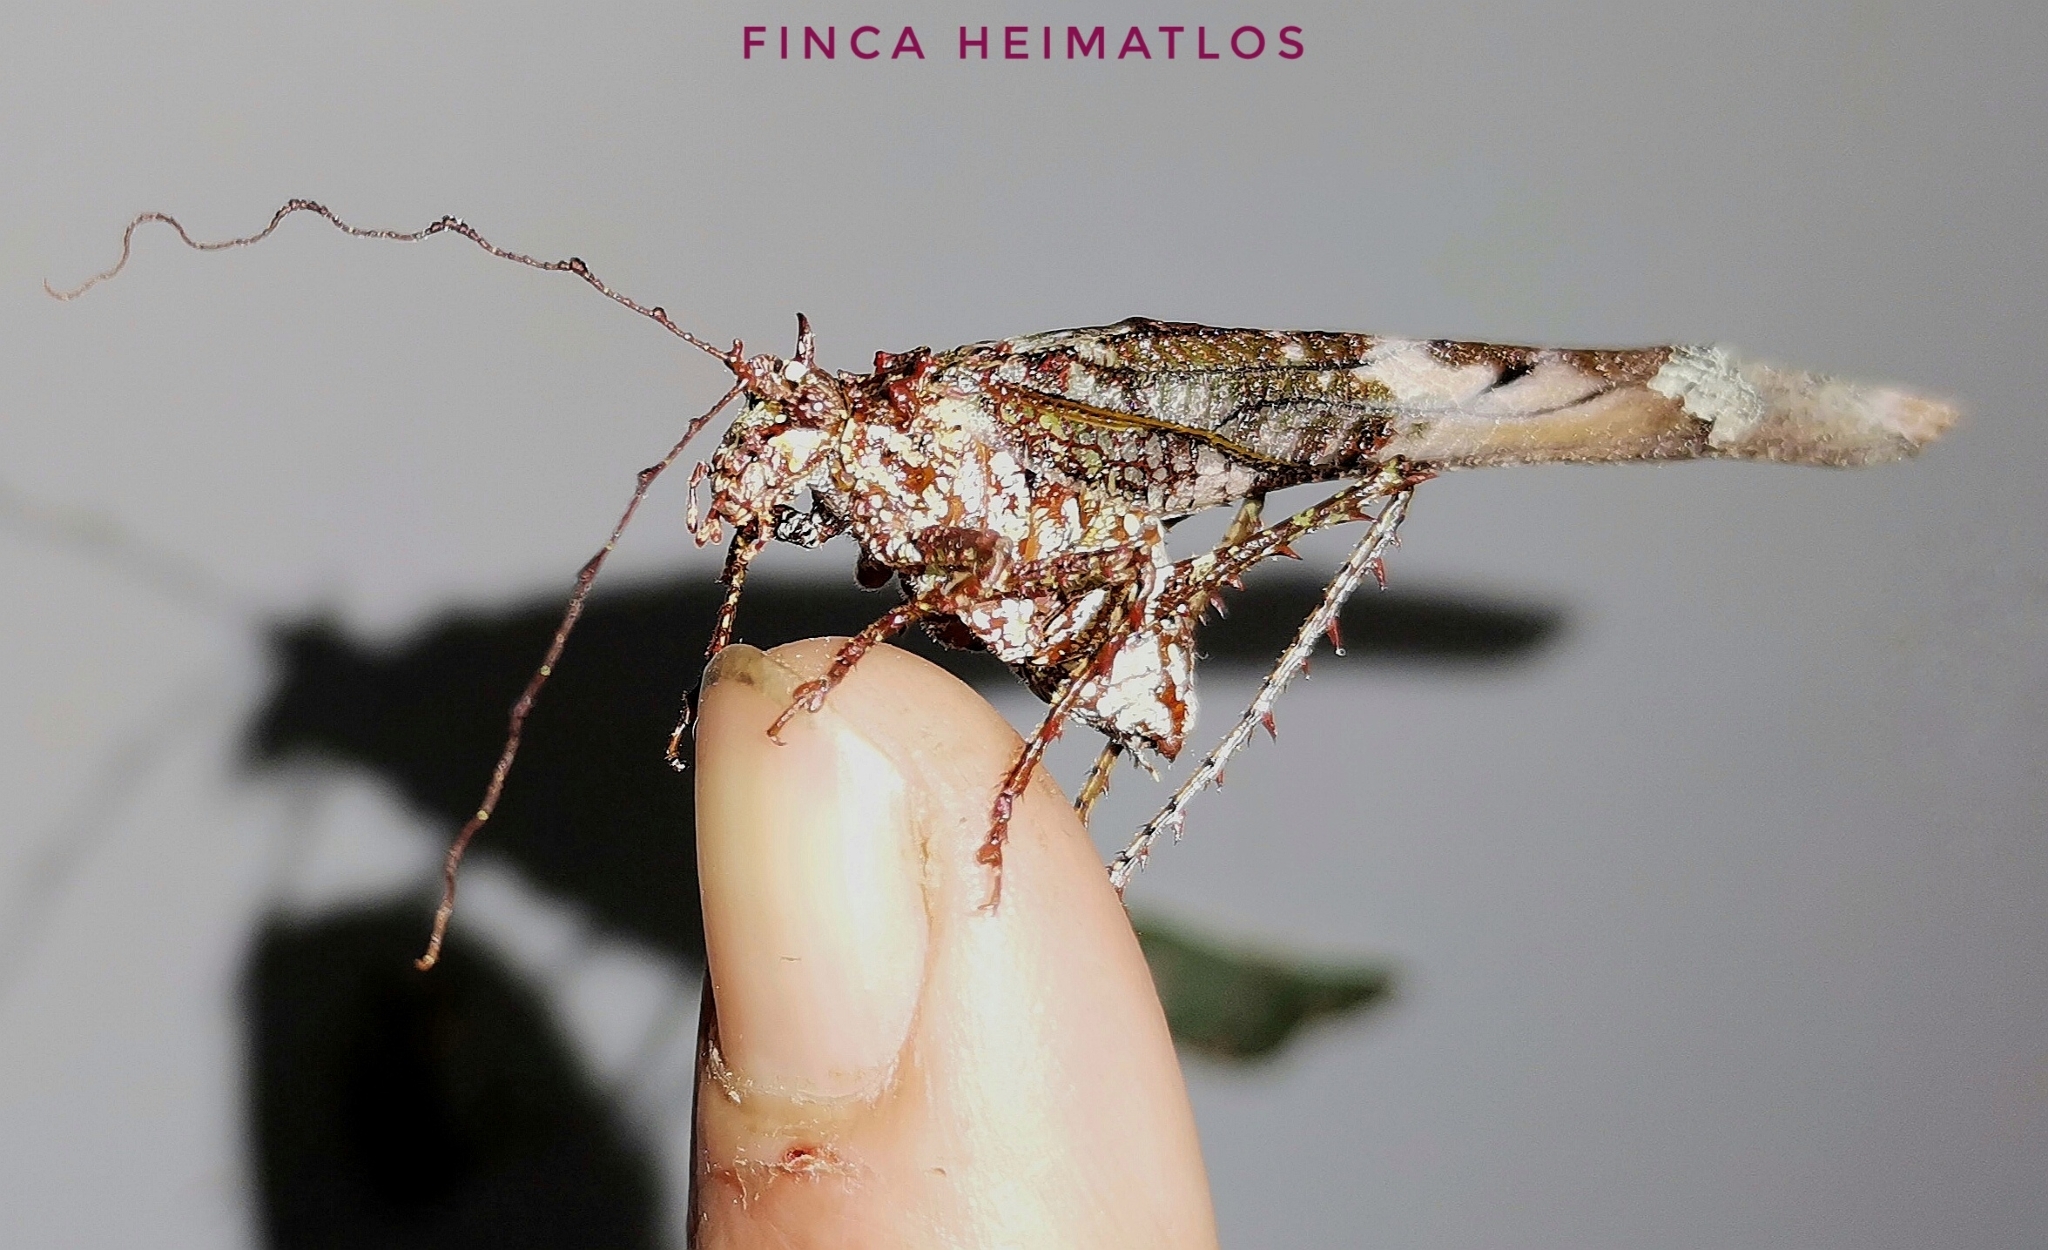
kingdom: Animalia
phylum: Arthropoda
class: Insecta
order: Orthoptera
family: Tettigoniidae
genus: Anaphidna
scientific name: Anaphidna rubricorpus
